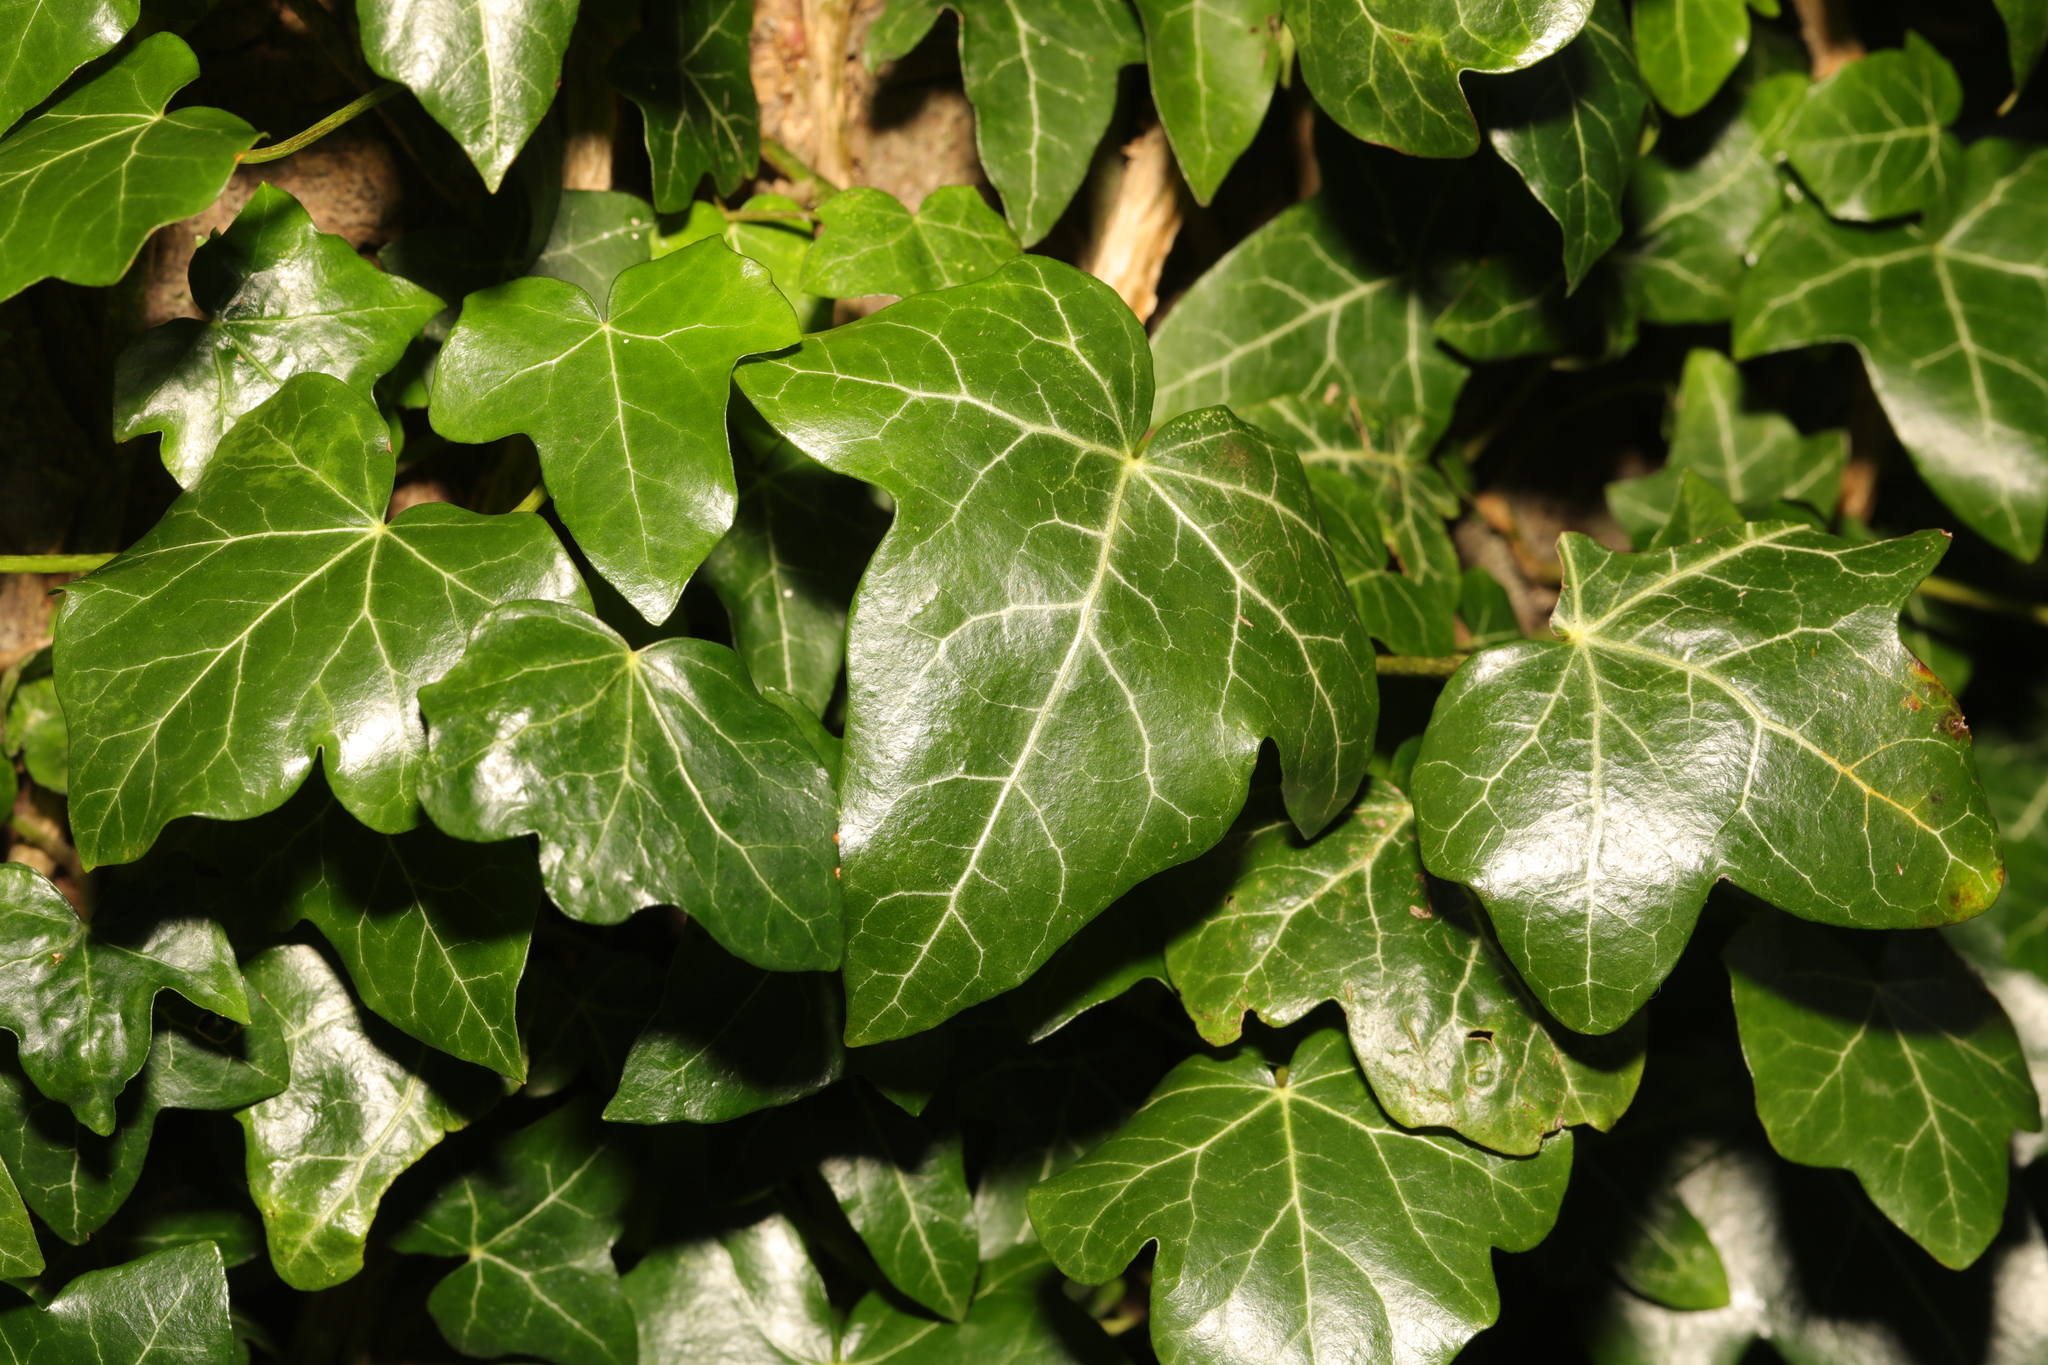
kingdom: Plantae
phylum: Tracheophyta
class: Magnoliopsida
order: Apiales
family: Araliaceae
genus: Hedera
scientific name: Hedera helix
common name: Ivy
